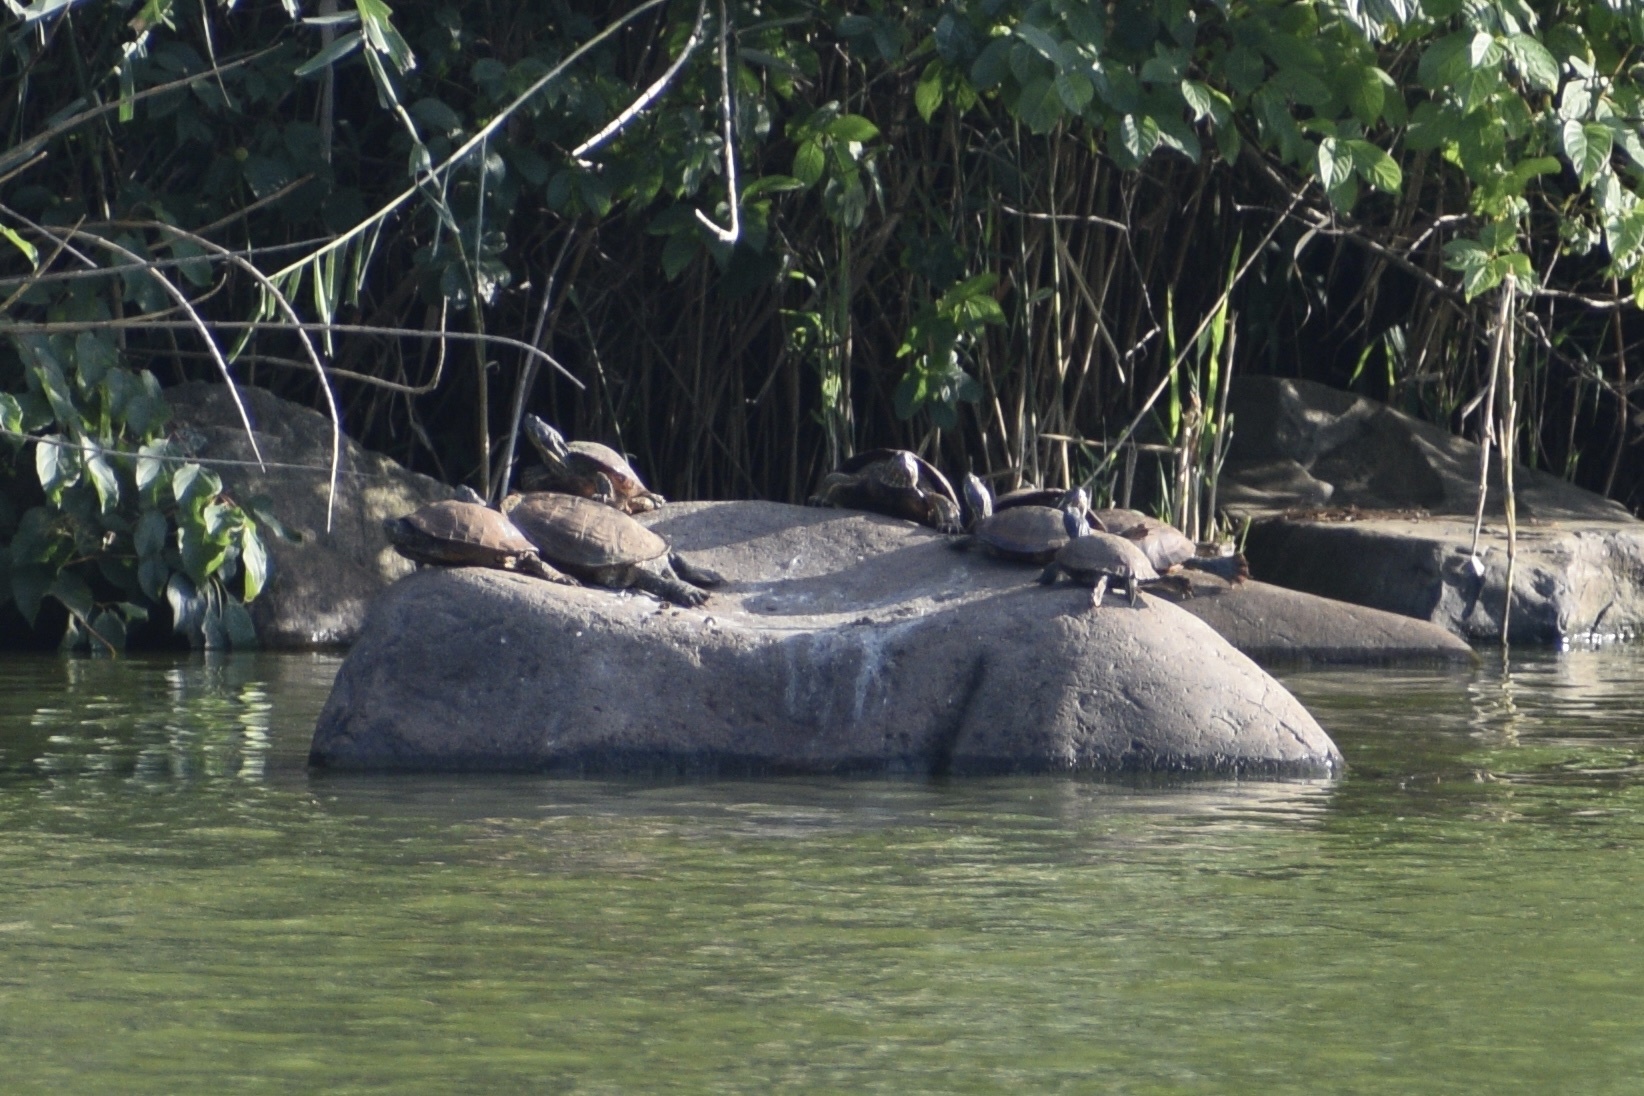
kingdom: Animalia
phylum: Chordata
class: Testudines
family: Emydidae
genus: Trachemys
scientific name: Trachemys scripta
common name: Slider
